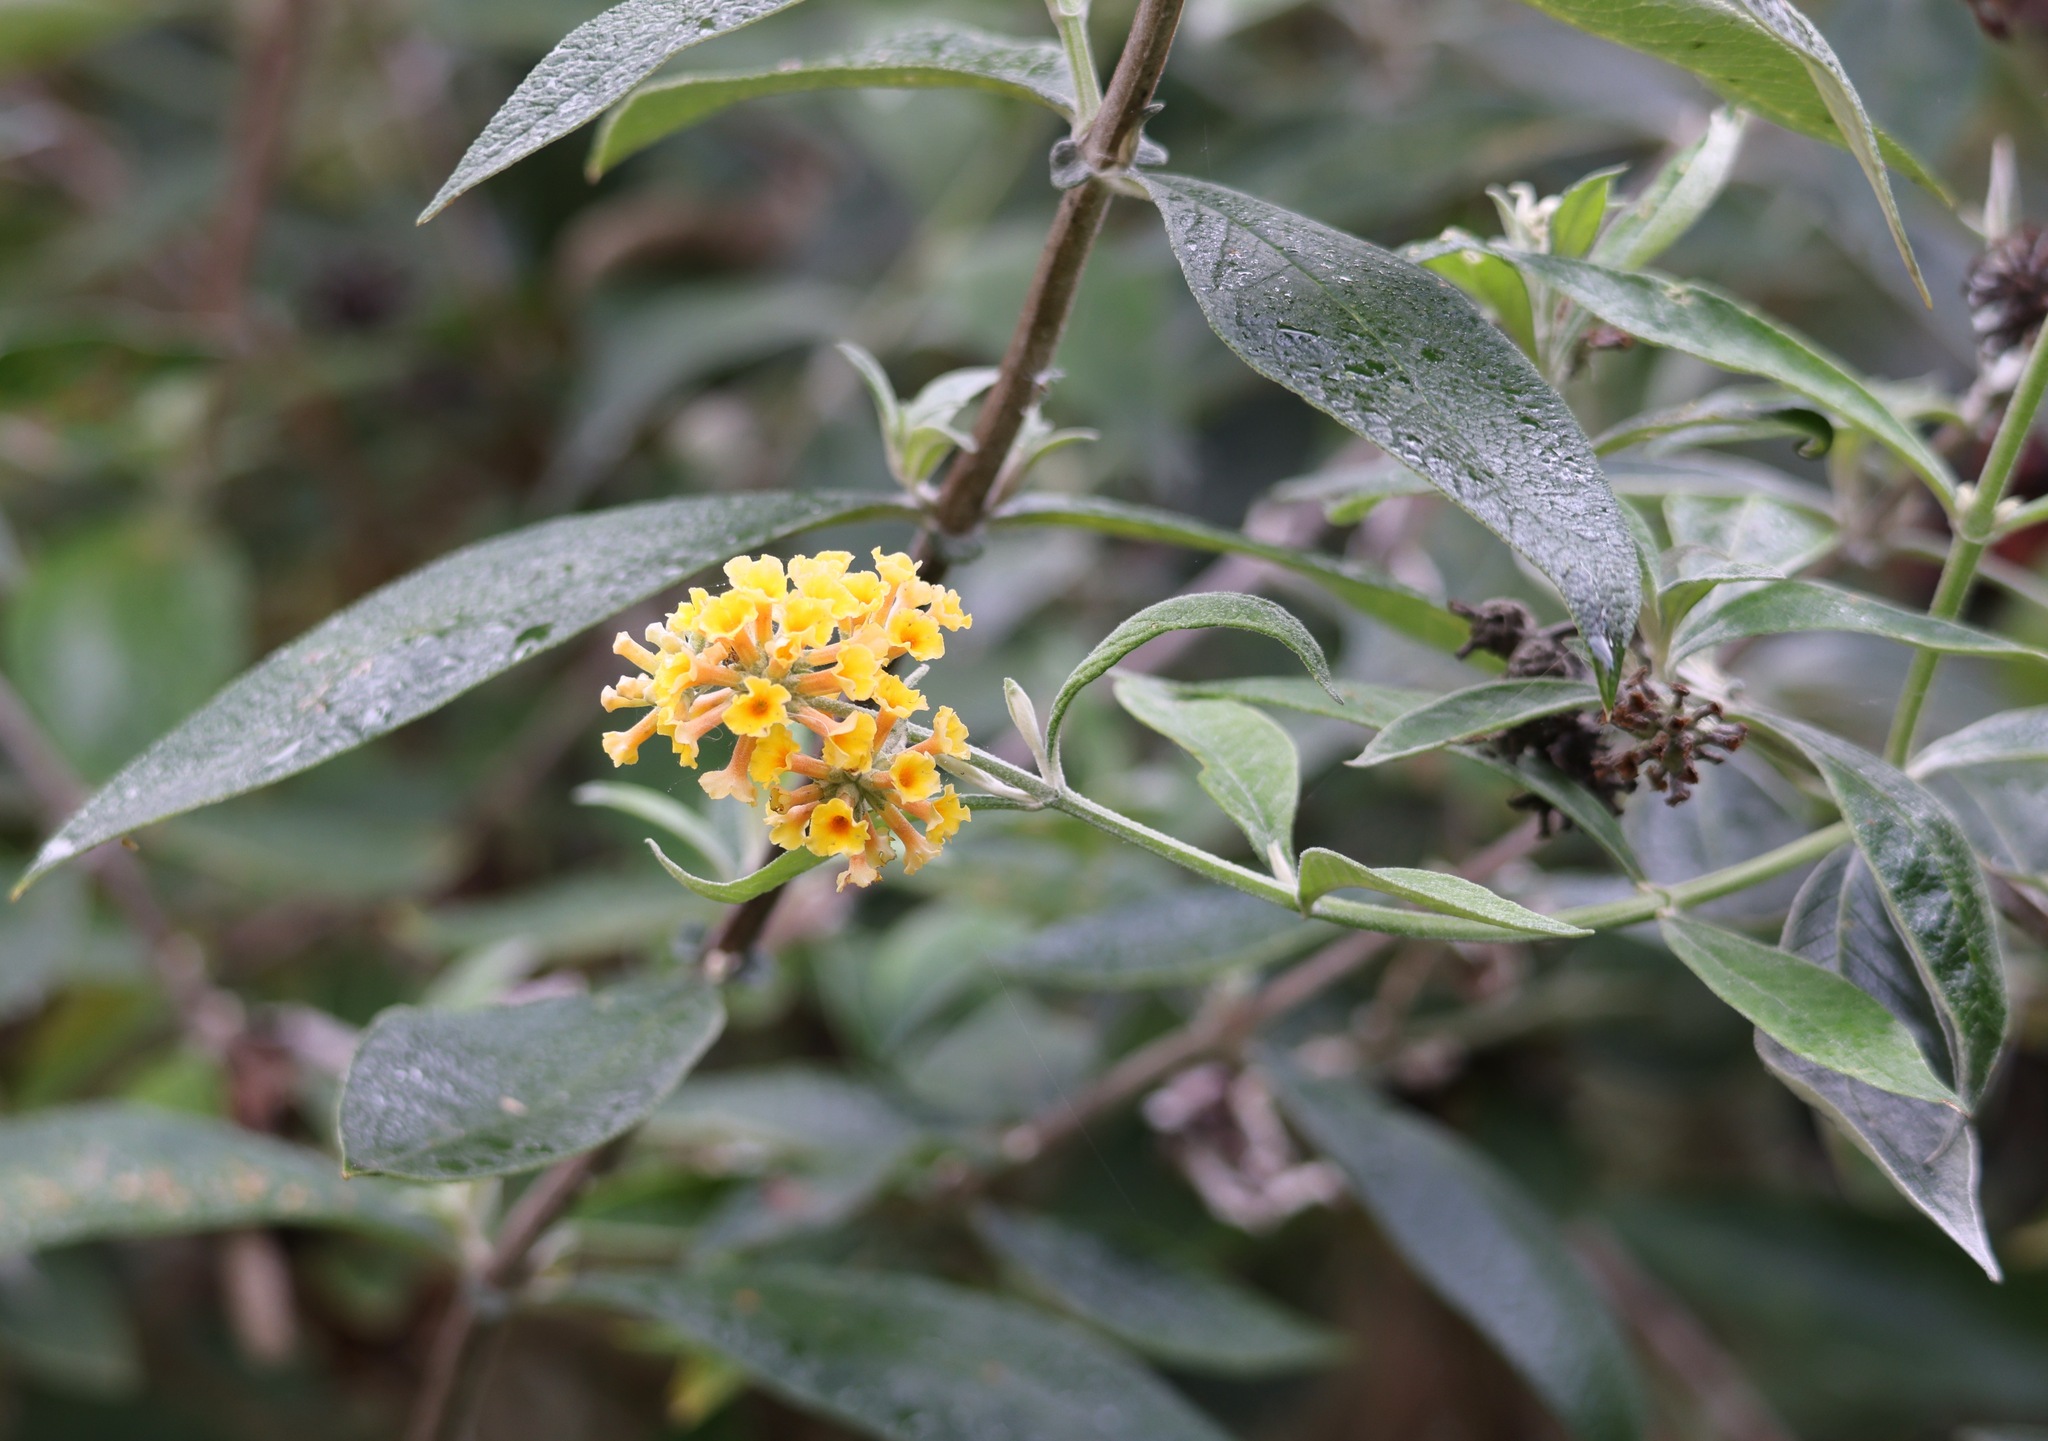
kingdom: Plantae
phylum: Tracheophyta
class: Magnoliopsida
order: Lamiales
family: Scrophulariaceae
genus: Buddleja
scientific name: Buddleja weyeriana
